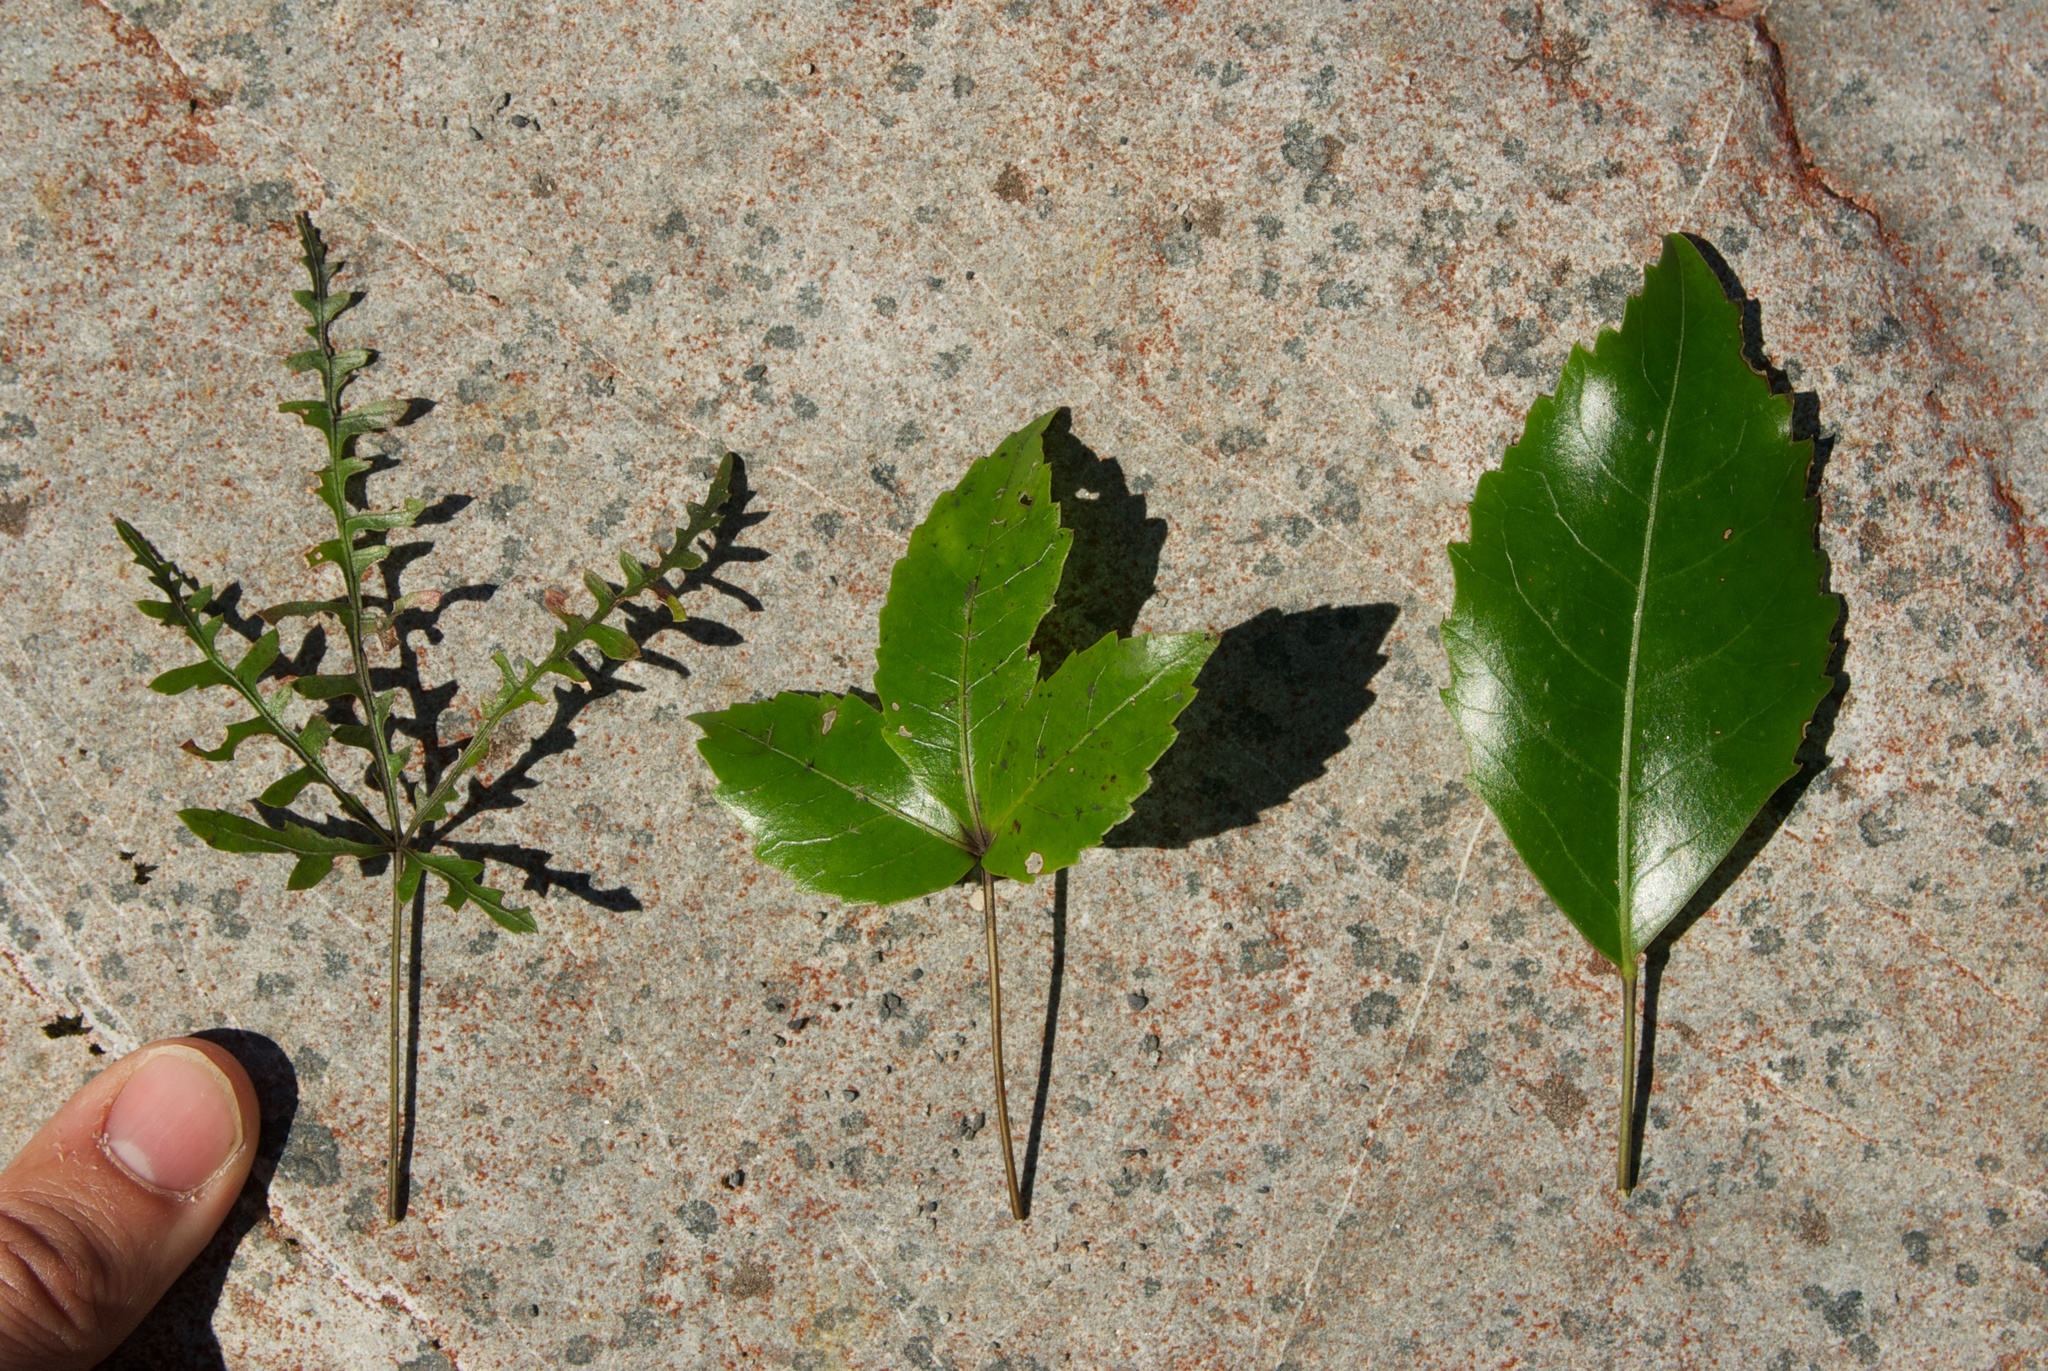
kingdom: Plantae
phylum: Tracheophyta
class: Magnoliopsida
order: Apiales
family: Araliaceae
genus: Raukaua
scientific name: Raukaua simplex
